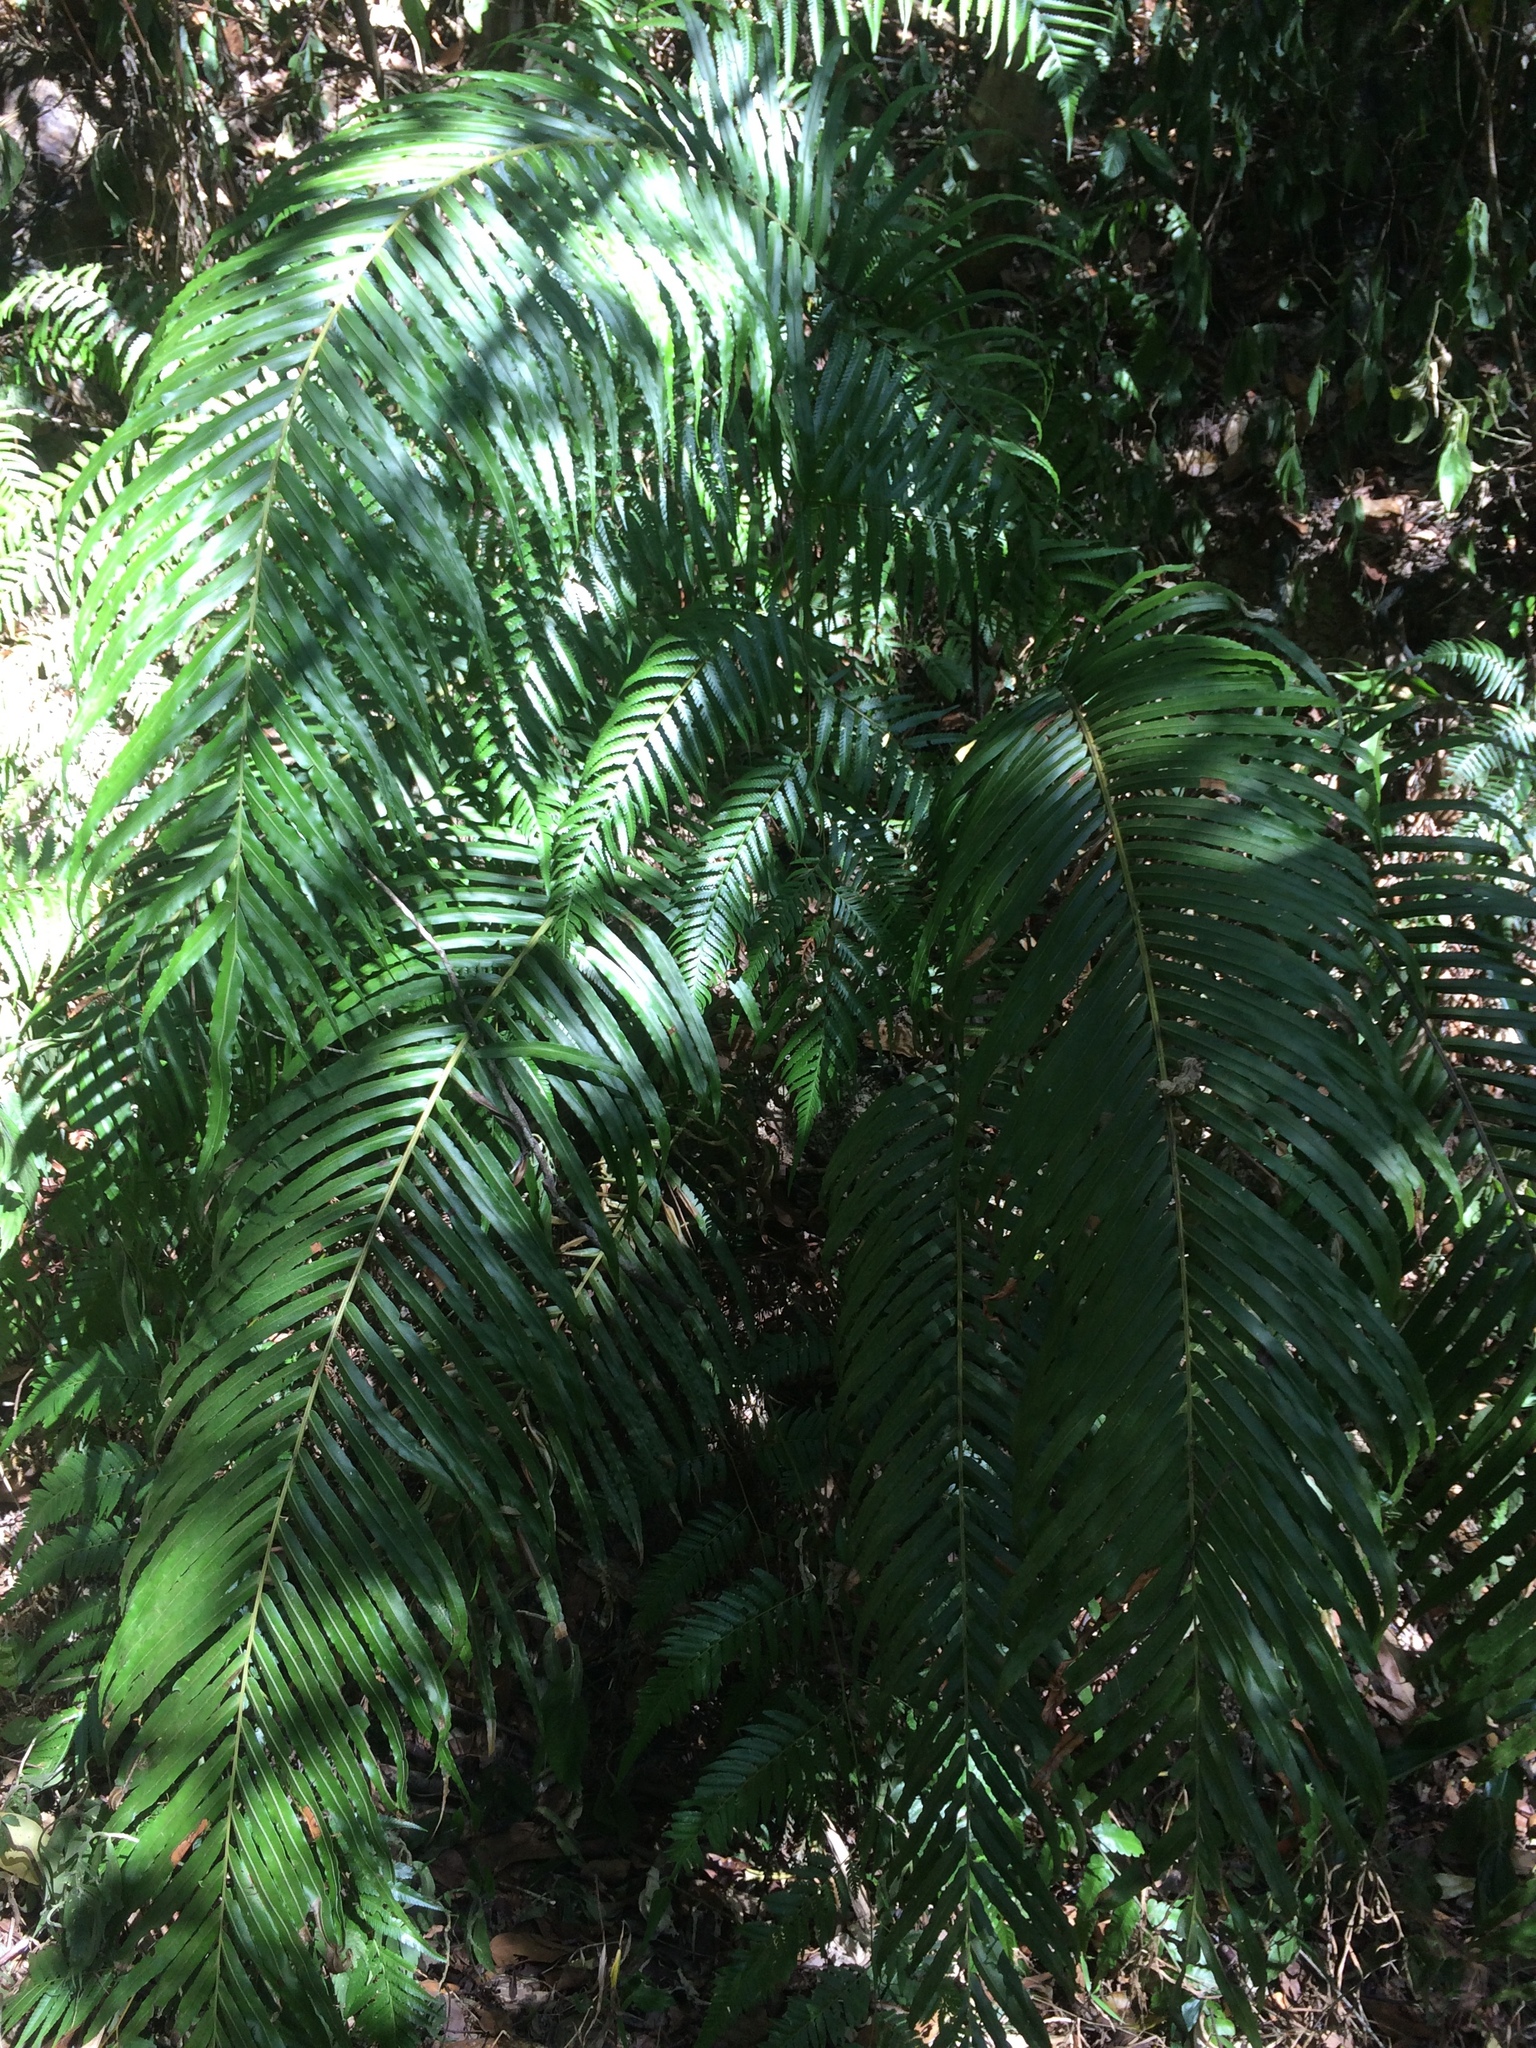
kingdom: Plantae
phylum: Tracheophyta
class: Polypodiopsida
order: Polypodiales
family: Blechnaceae
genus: Blechnopsis
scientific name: Blechnopsis orientalis
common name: Oriental blechnum
